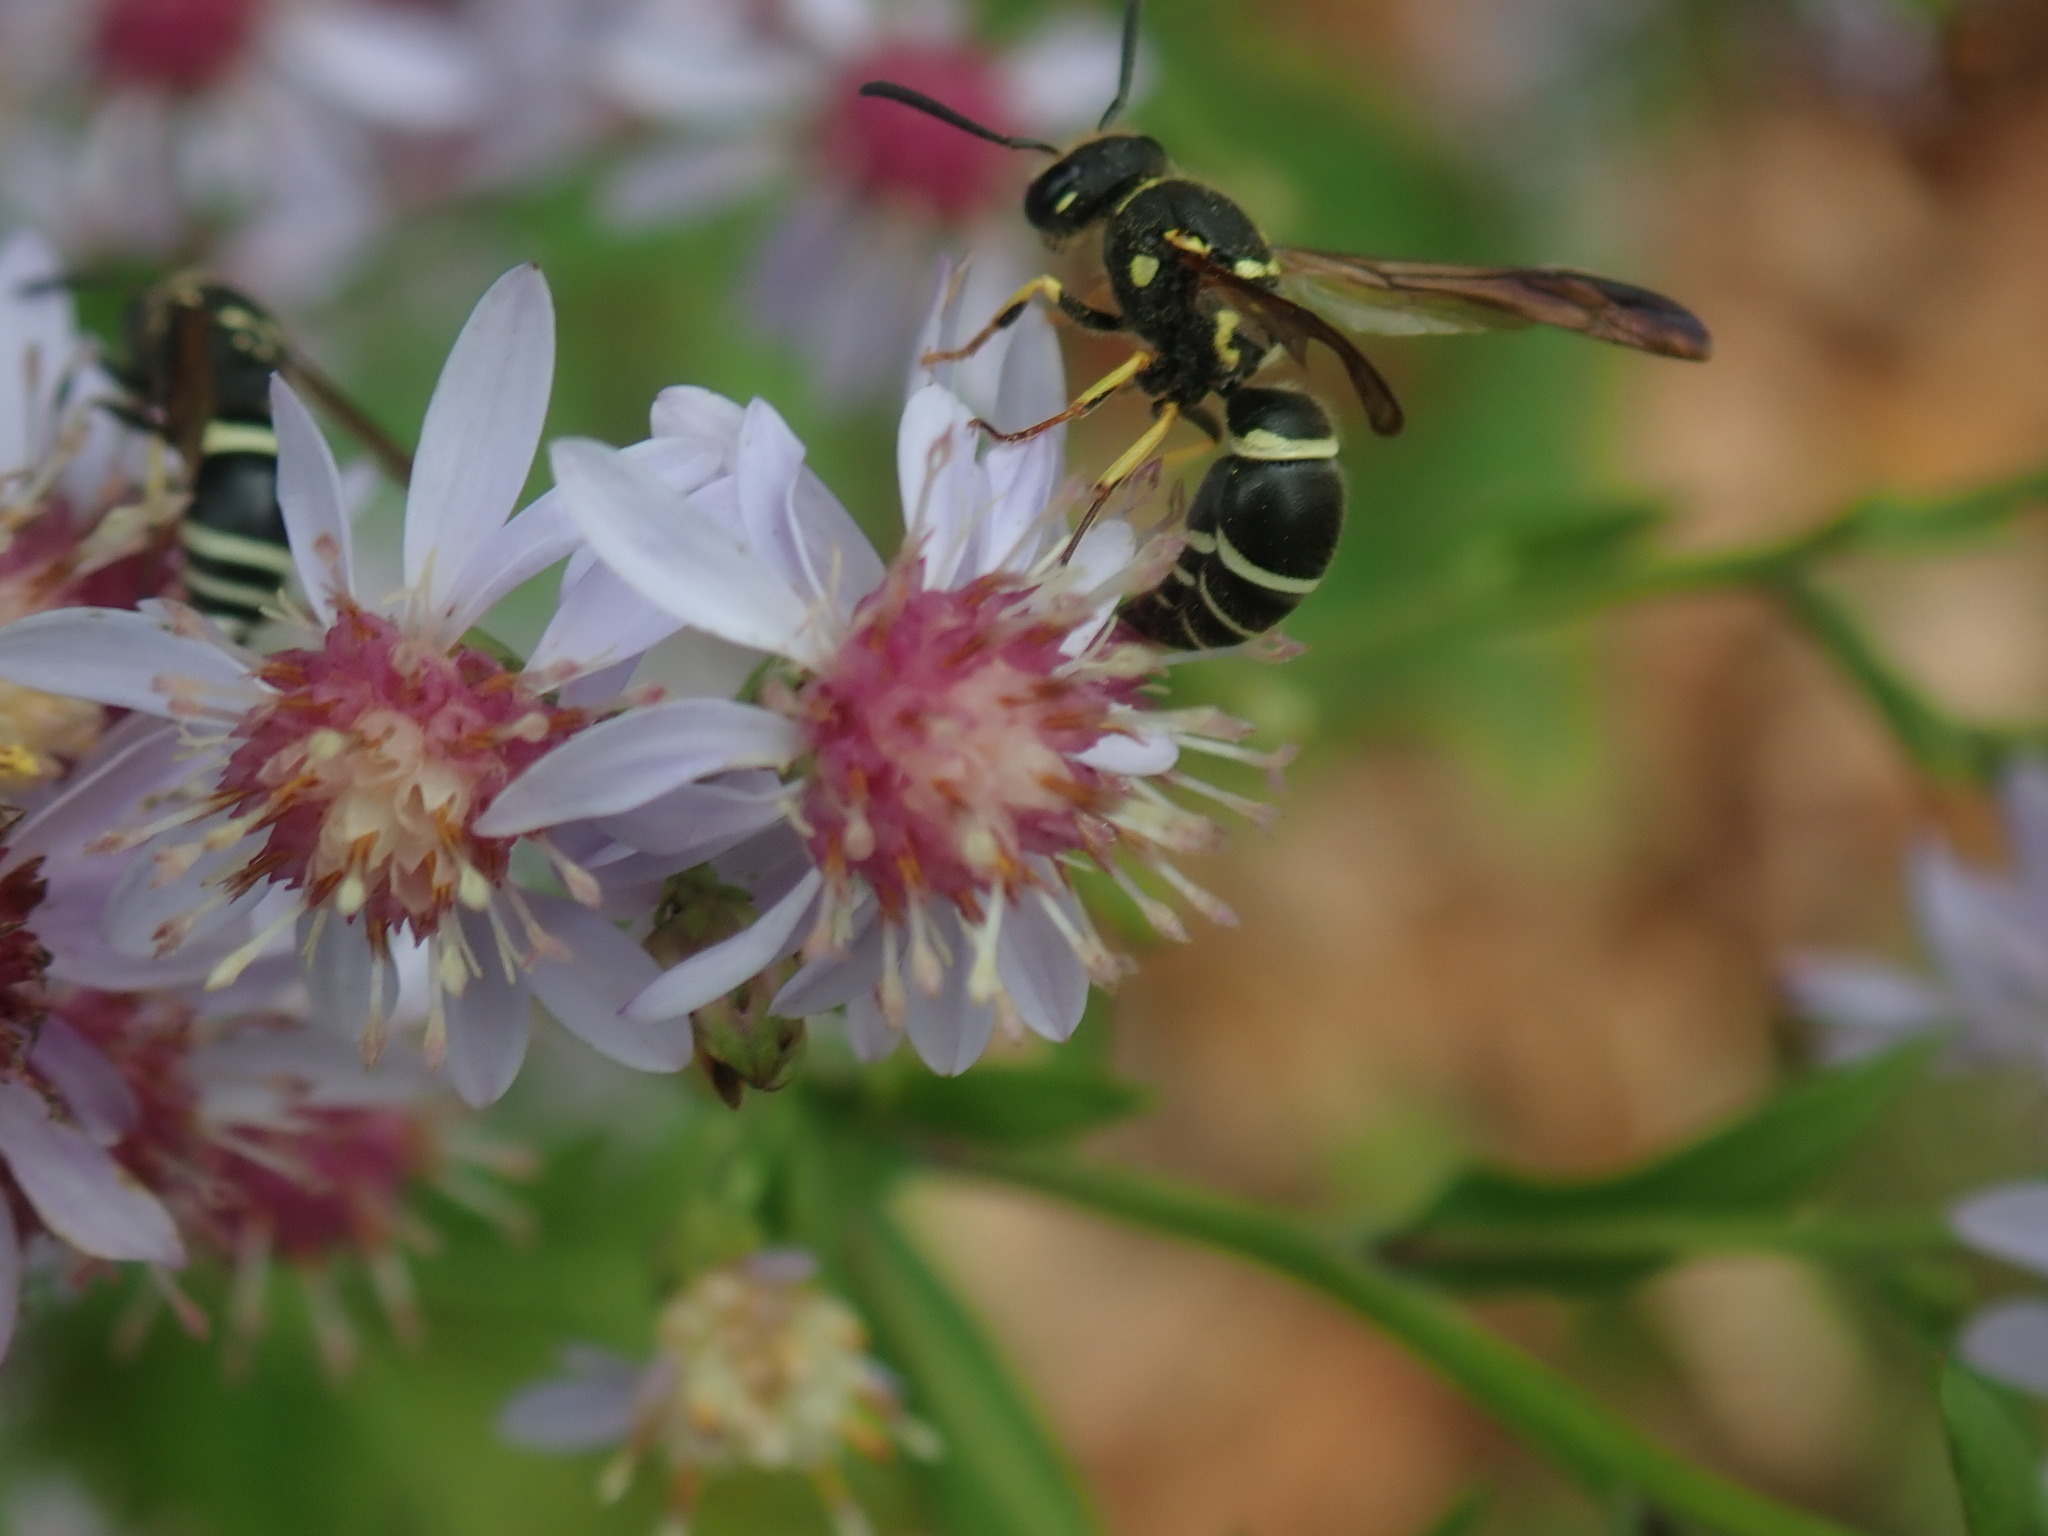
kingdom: Animalia
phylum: Arthropoda
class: Insecta
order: Hymenoptera
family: Vespidae
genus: Ancistrocerus
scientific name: Ancistrocerus catskill
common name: Vespid wasp
